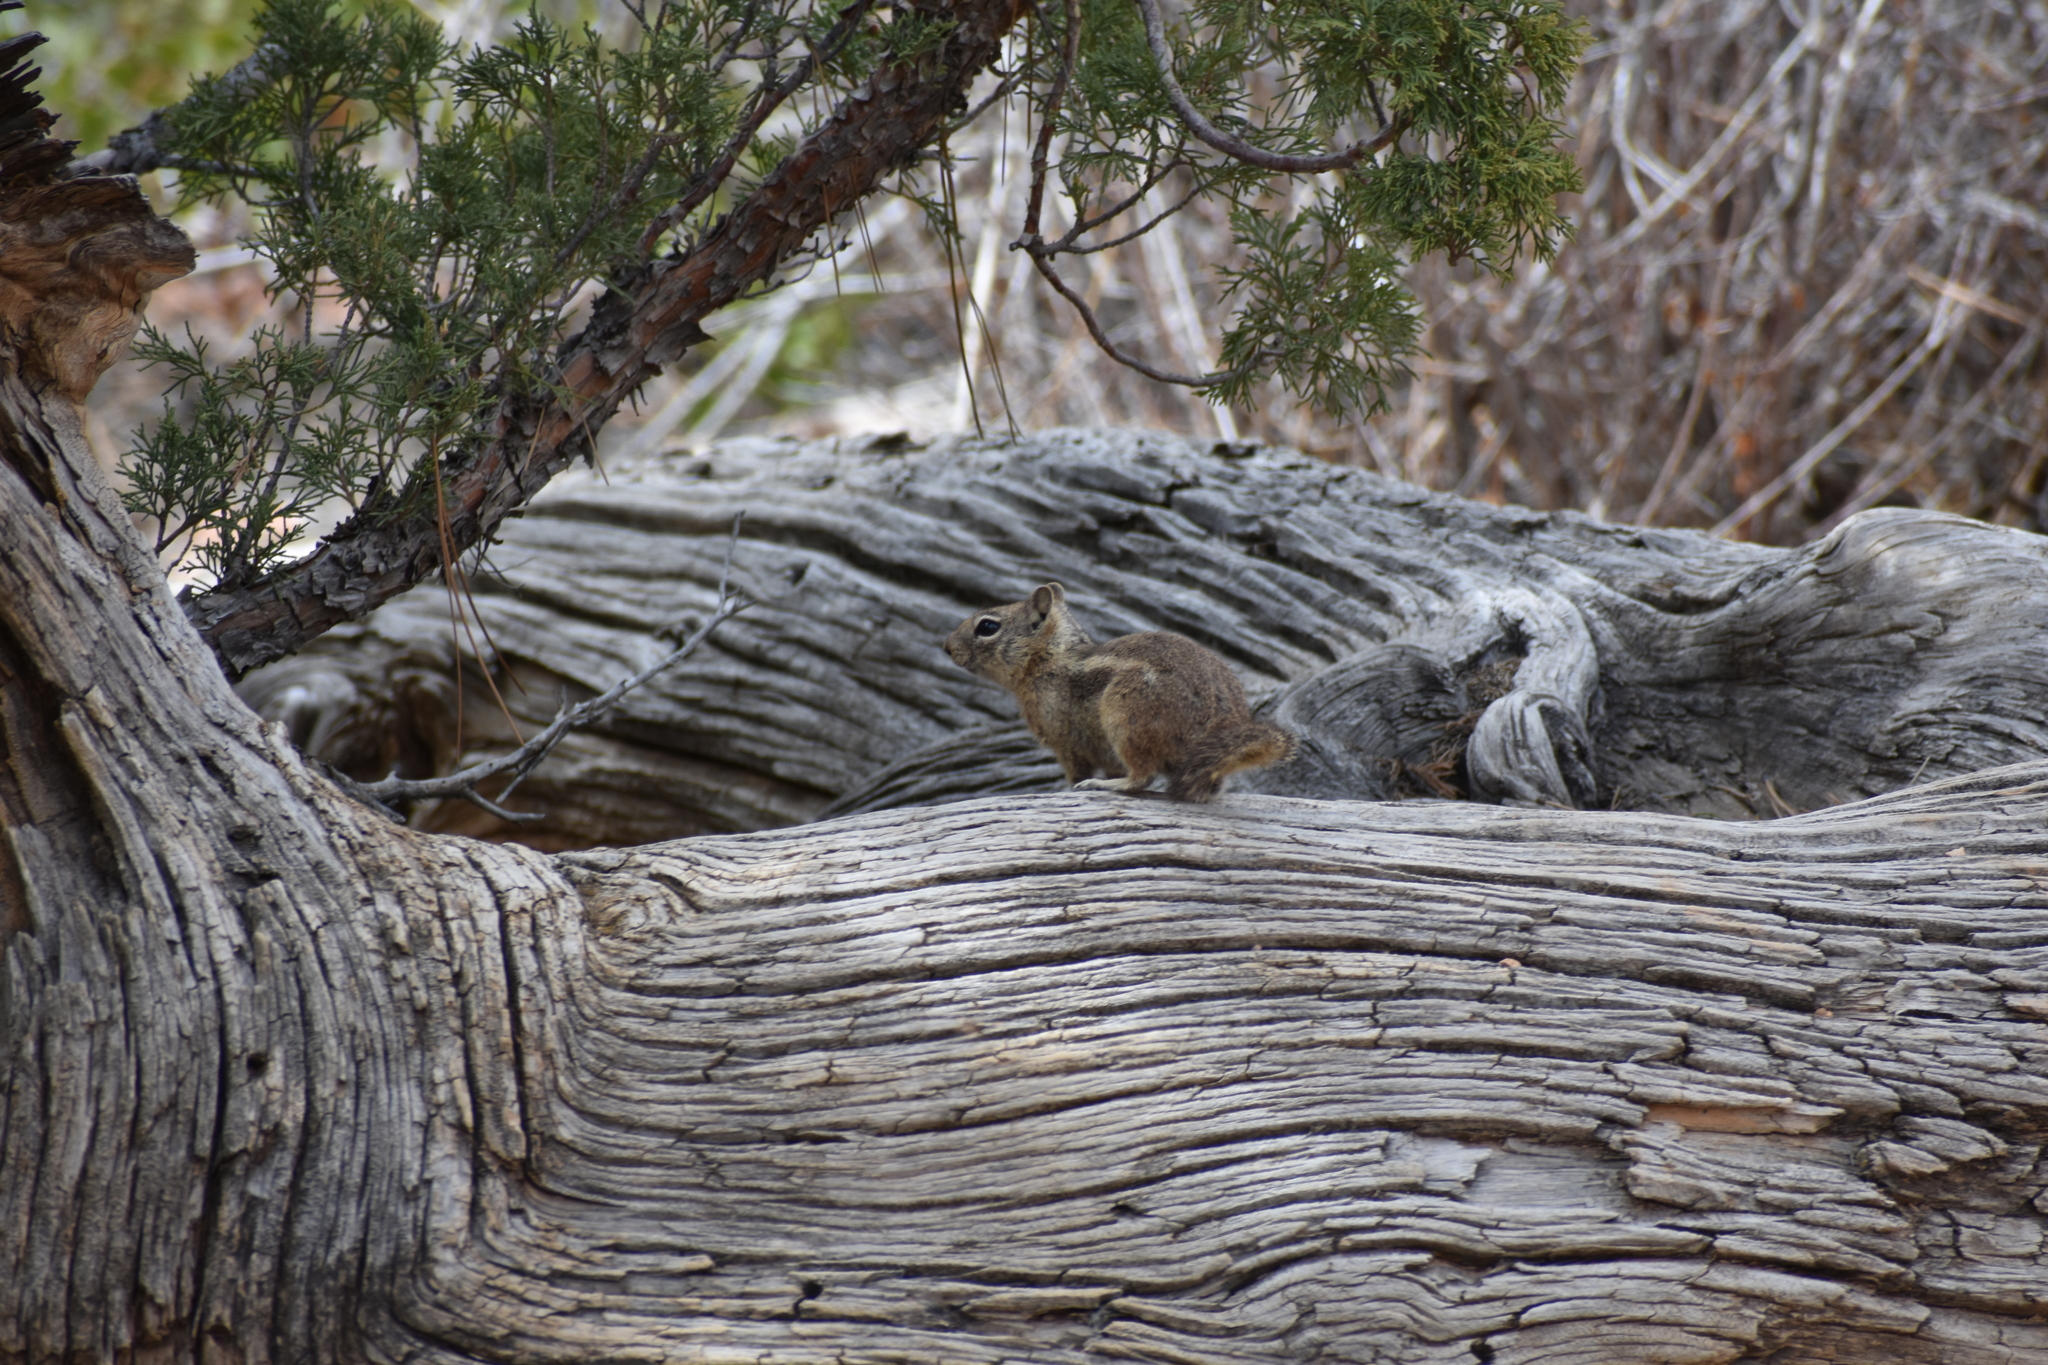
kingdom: Animalia
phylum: Chordata
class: Mammalia
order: Rodentia
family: Sciuridae
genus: Callospermophilus
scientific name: Callospermophilus lateralis
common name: Golden-mantled ground squirrel
